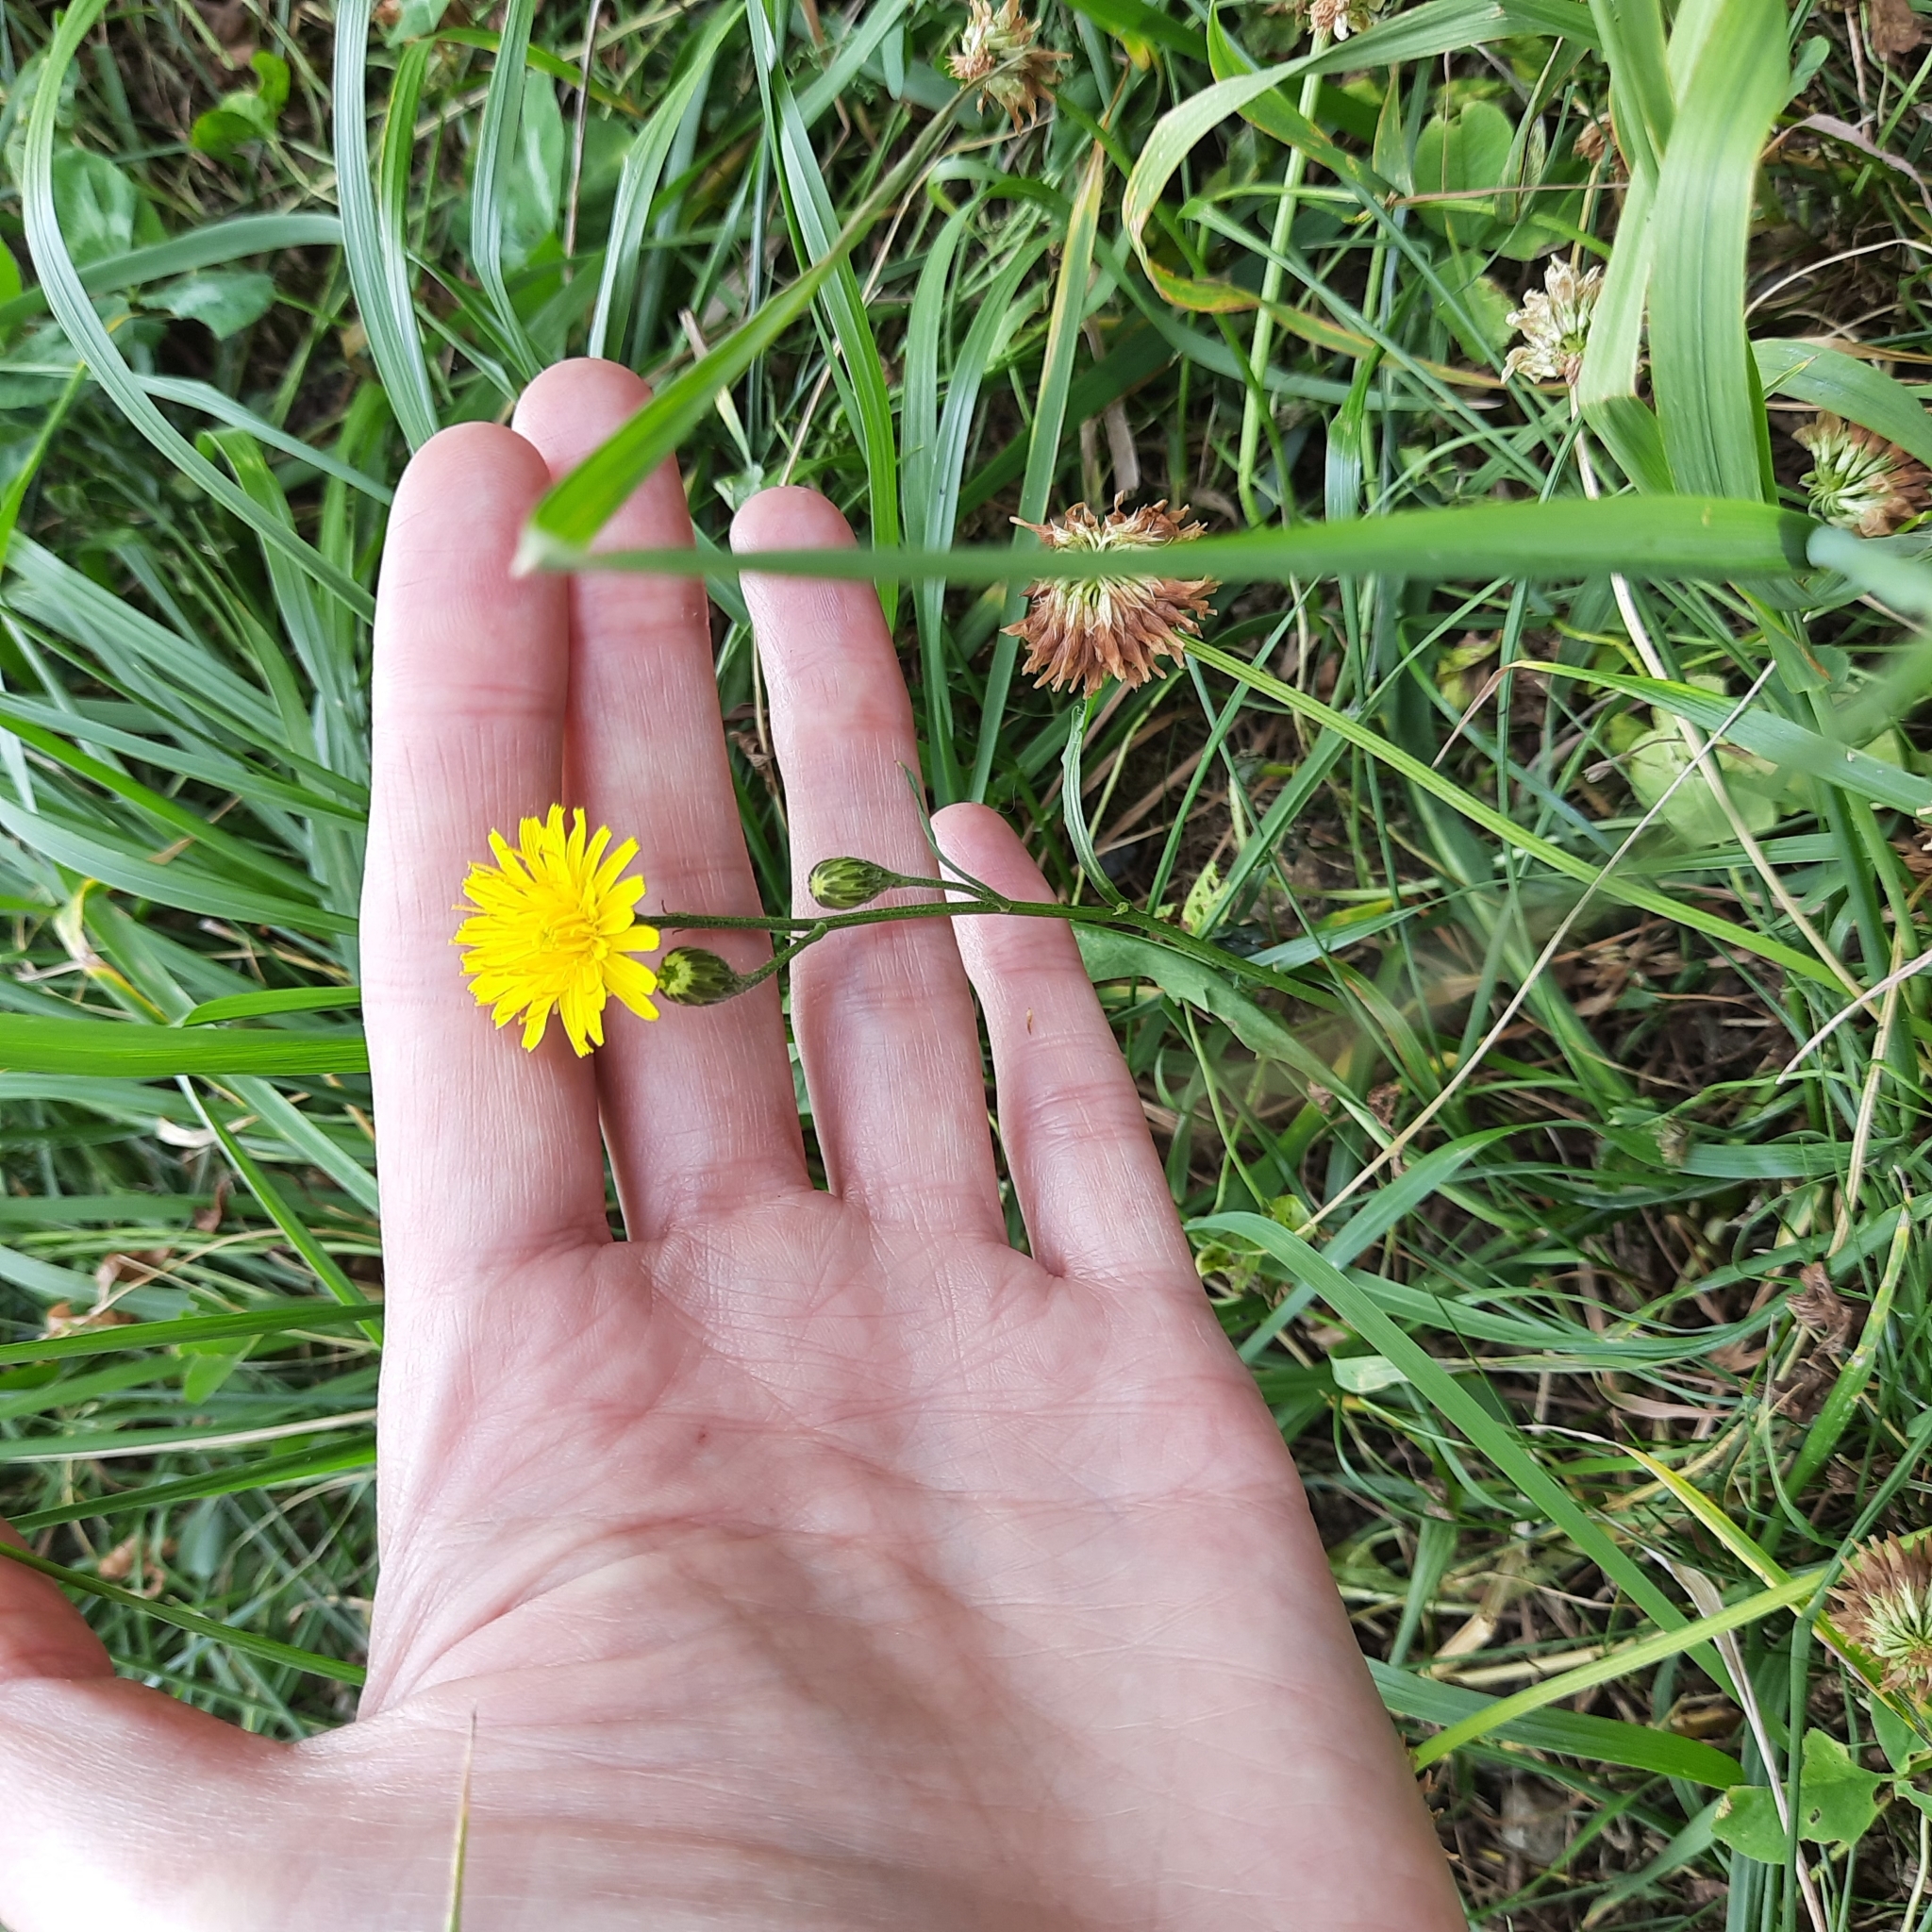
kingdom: Plantae
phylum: Tracheophyta
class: Magnoliopsida
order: Asterales
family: Asteraceae
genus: Scorzoneroides
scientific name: Scorzoneroides autumnalis
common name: Autumn hawkbit
